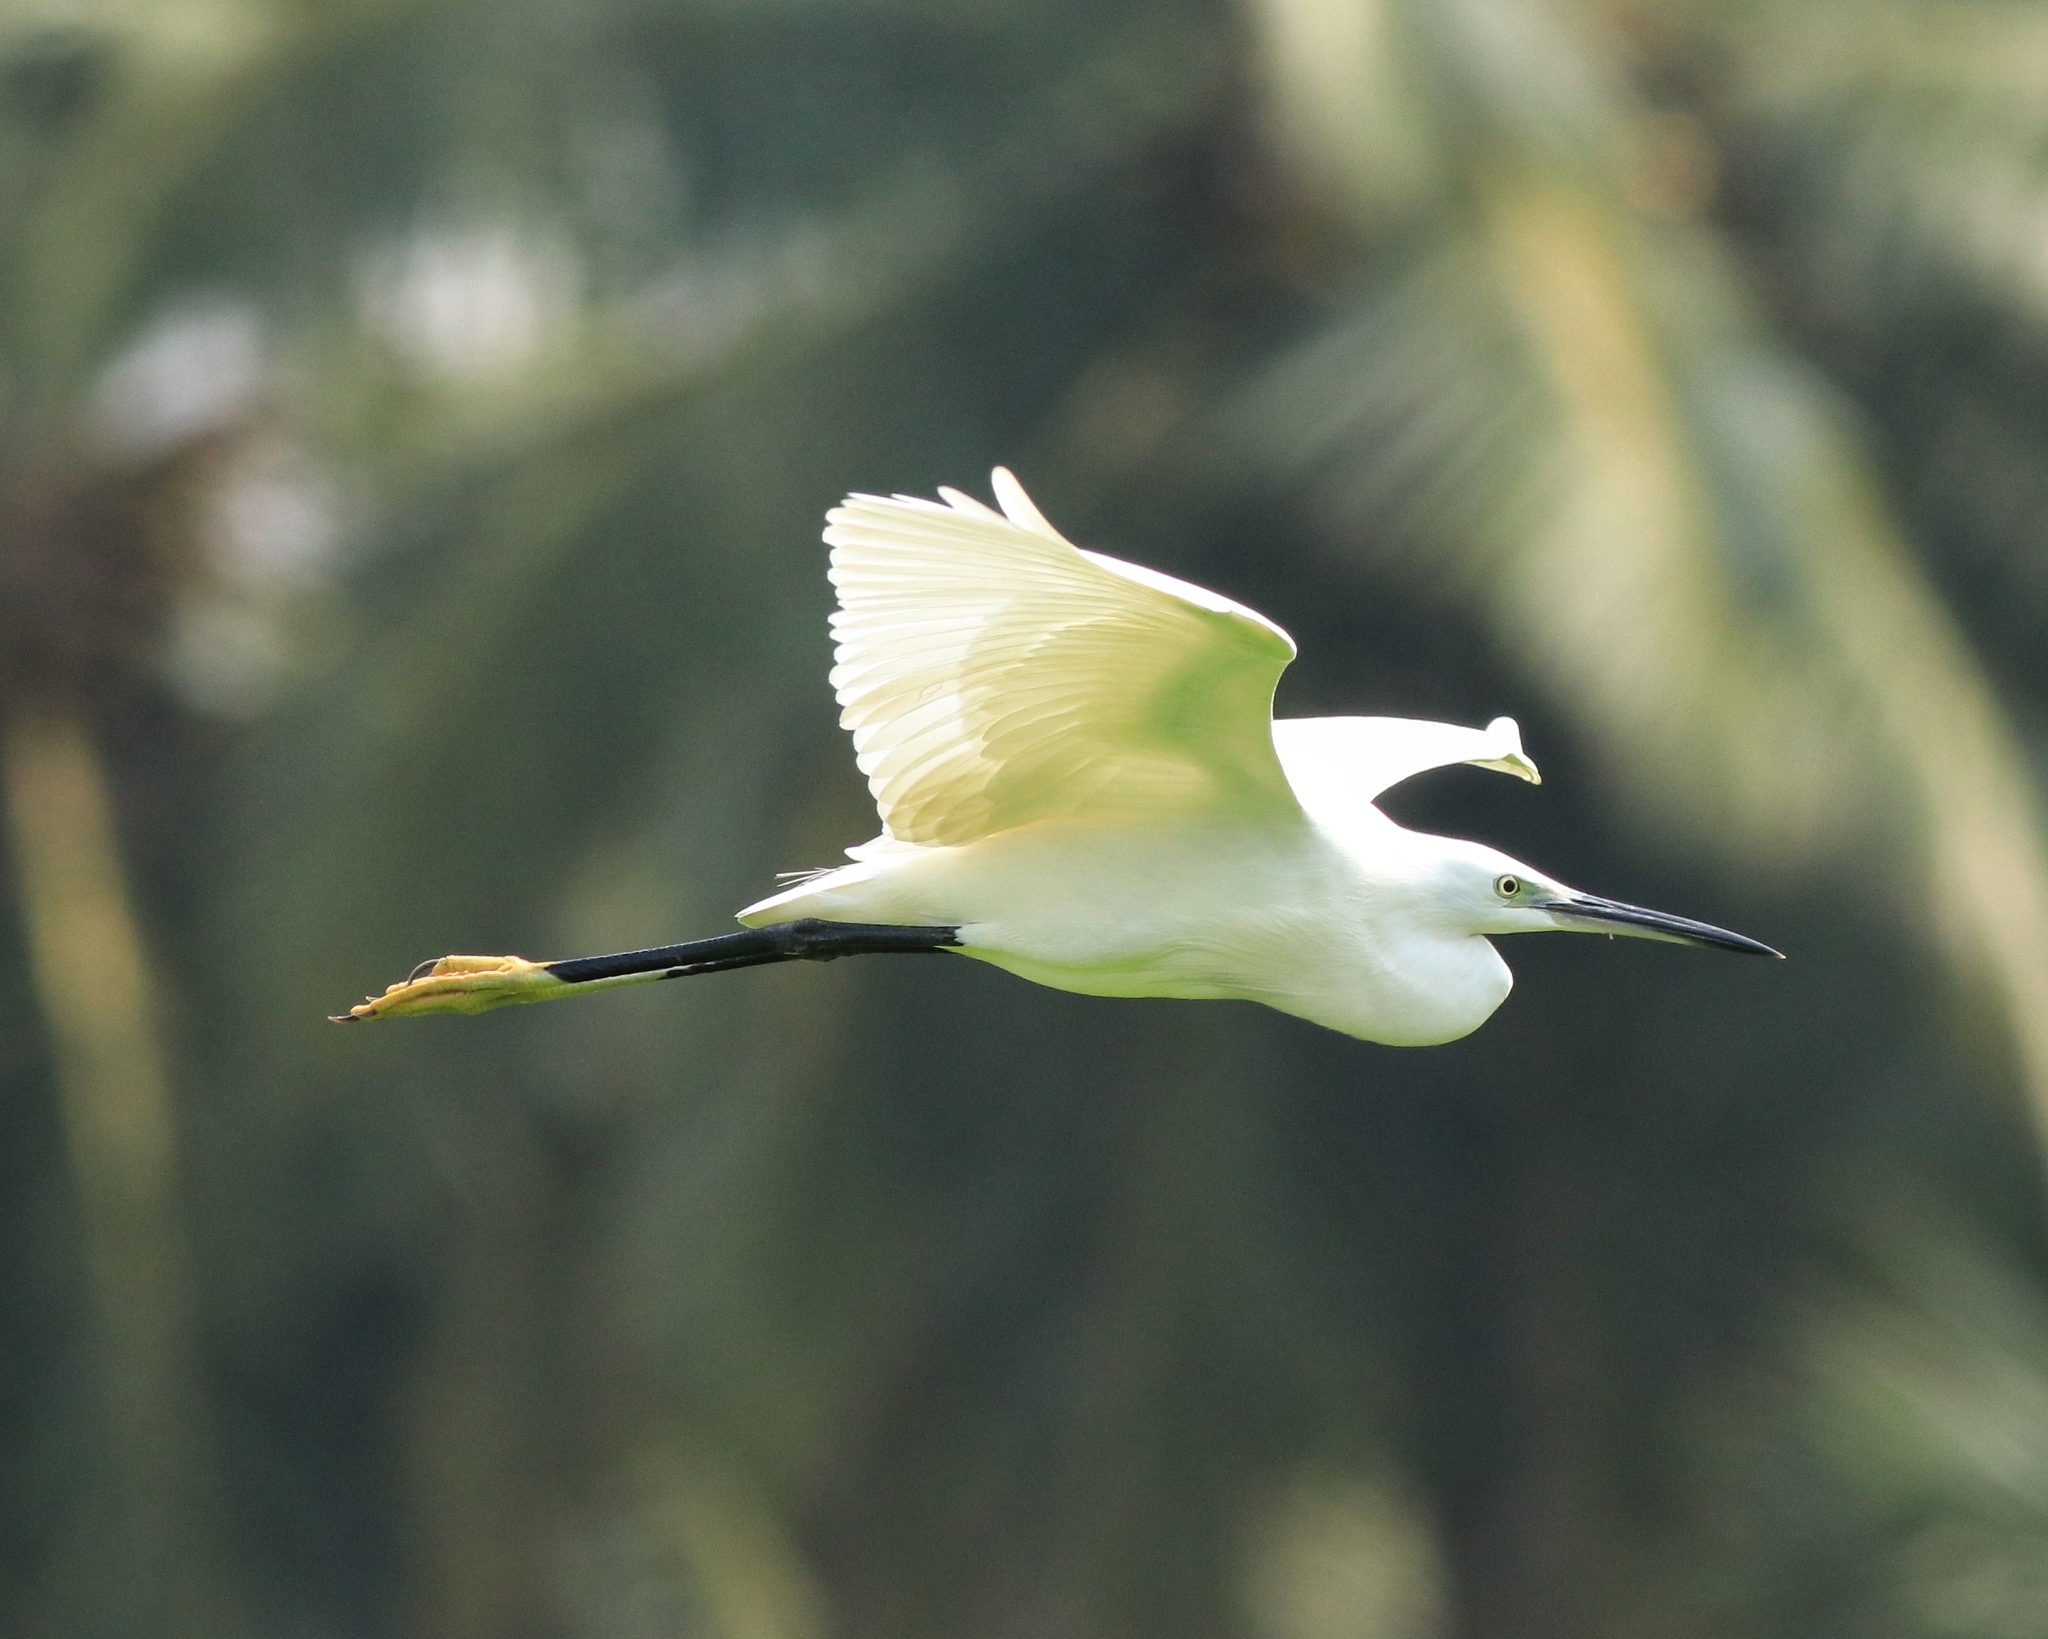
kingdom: Animalia
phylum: Chordata
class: Aves
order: Pelecaniformes
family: Ardeidae
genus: Egretta
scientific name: Egretta garzetta
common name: Little egret
